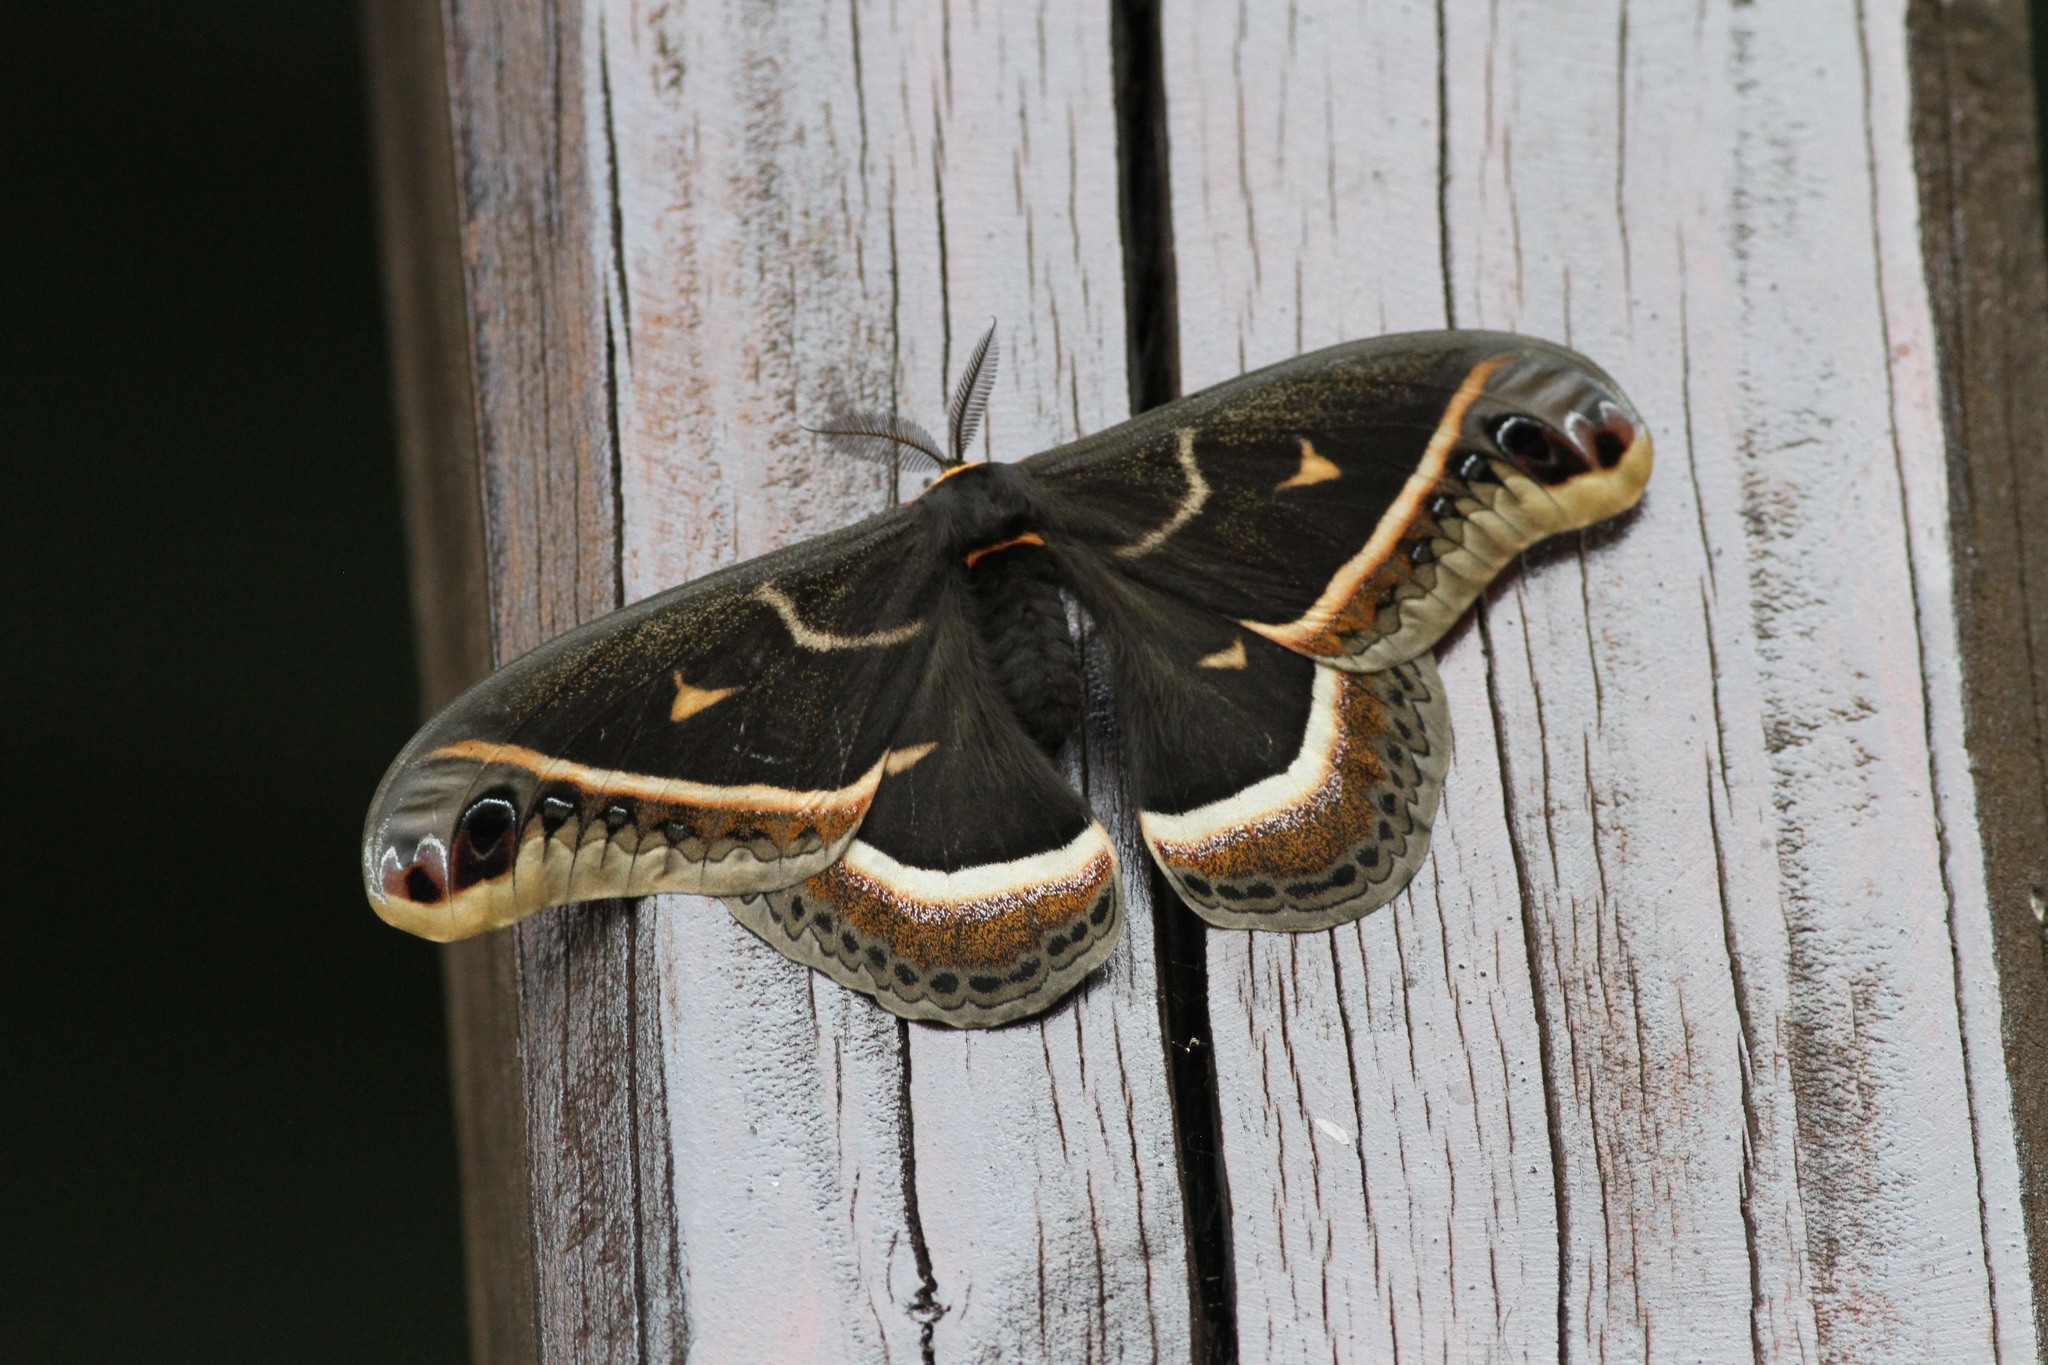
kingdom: Animalia
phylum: Arthropoda
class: Insecta
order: Lepidoptera
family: Saturniidae
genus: Eupackardia
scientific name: Eupackardia calleta
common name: Calleta silkmoth
